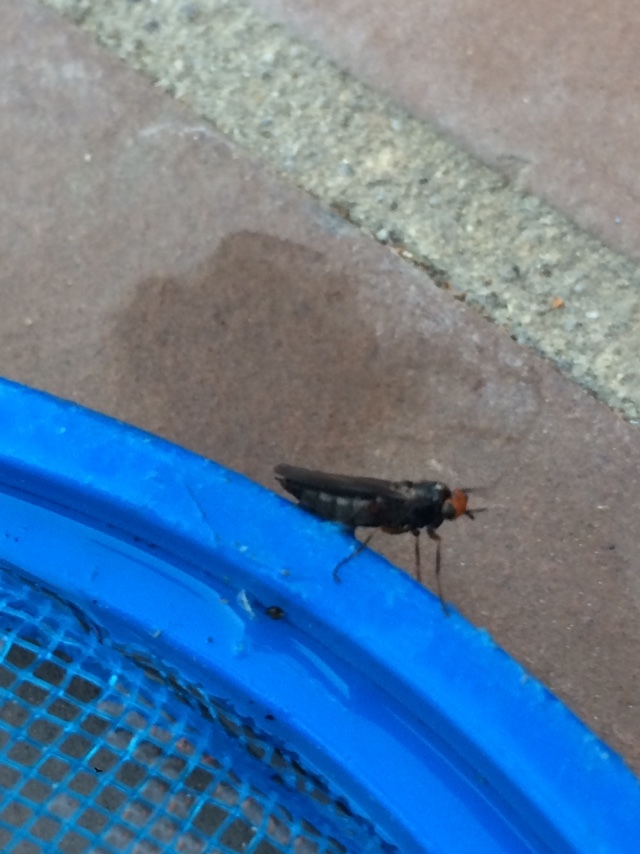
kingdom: Animalia
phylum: Arthropoda
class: Insecta
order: Diptera
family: Stratiomyidae
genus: Inopus
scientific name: Inopus rubriceps
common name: Soldier fly
